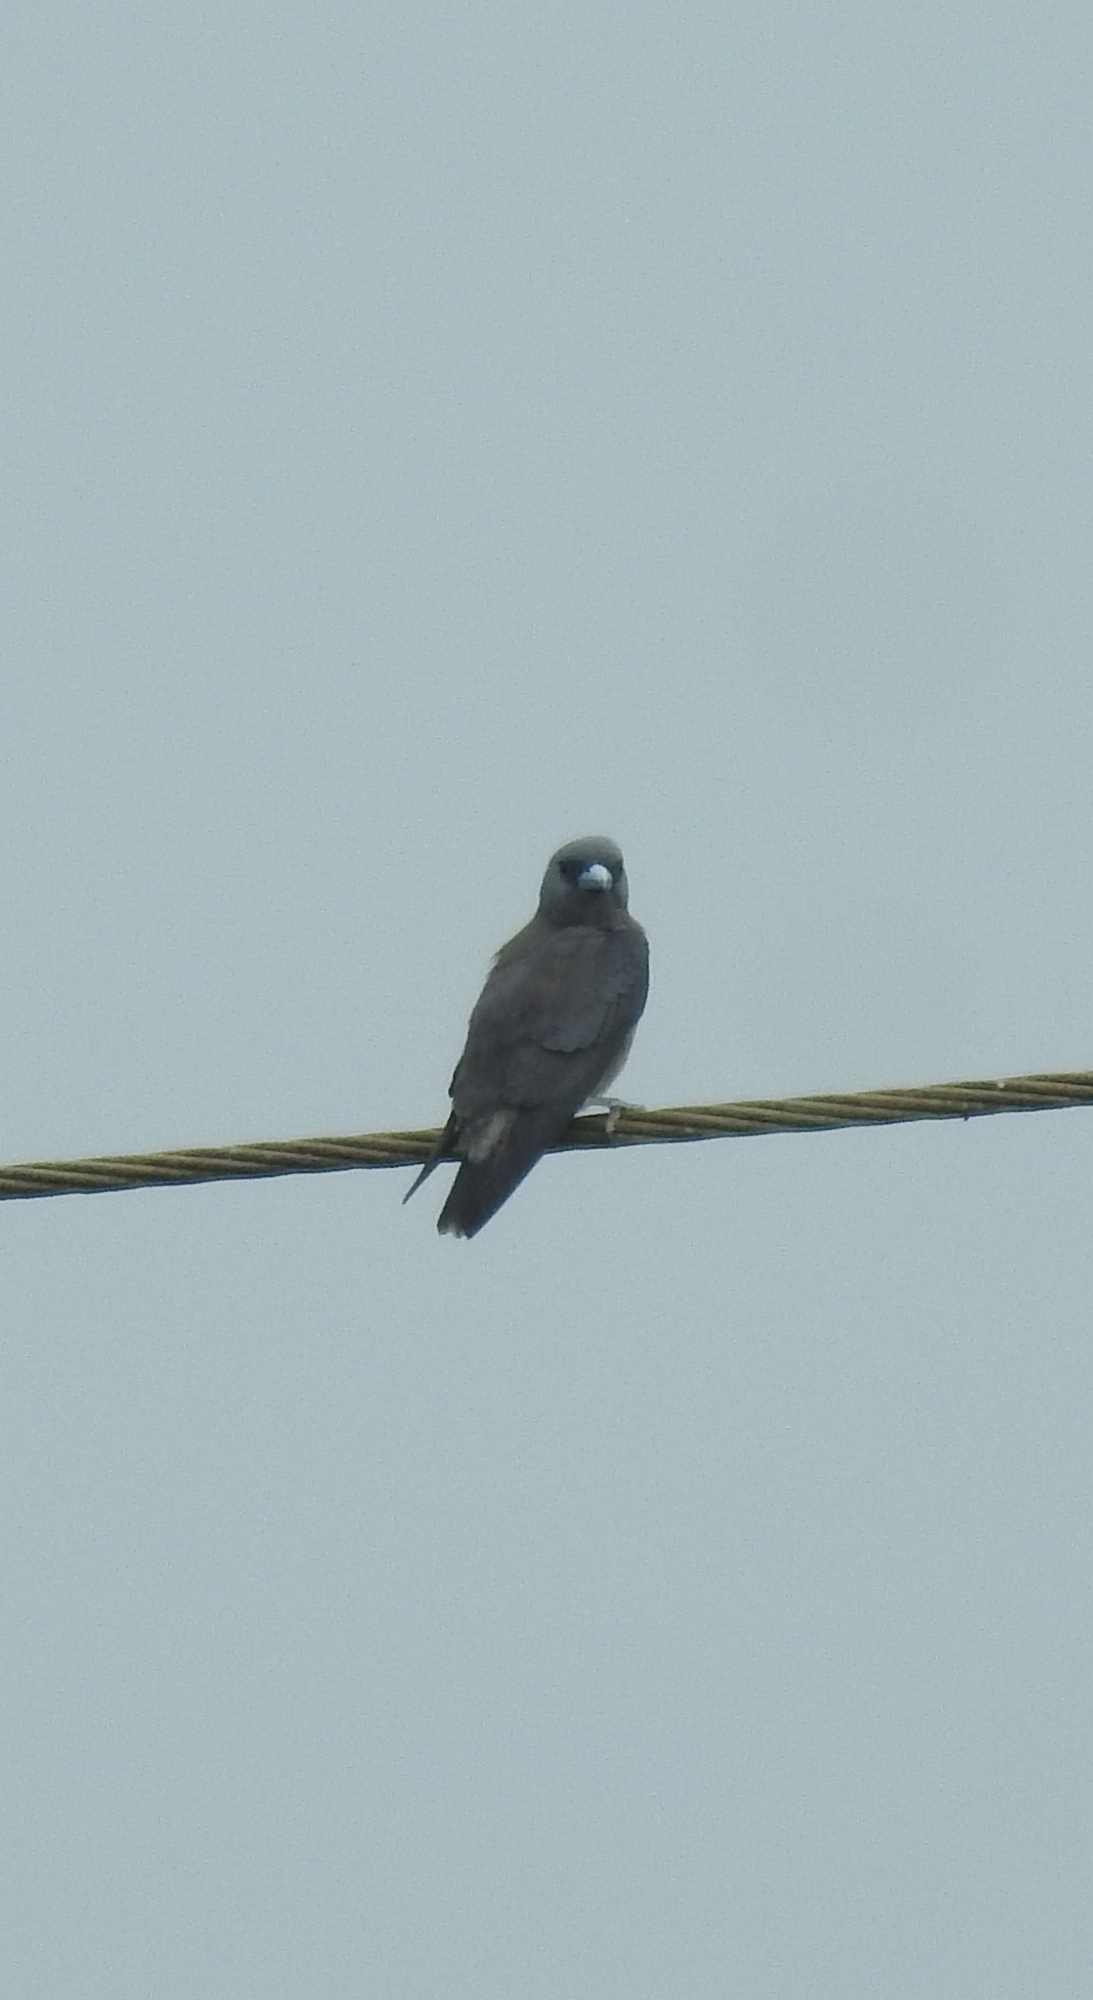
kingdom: Animalia
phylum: Chordata
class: Aves
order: Passeriformes
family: Artamidae
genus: Artamus
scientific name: Artamus fuscus
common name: Ashy woodswallow
